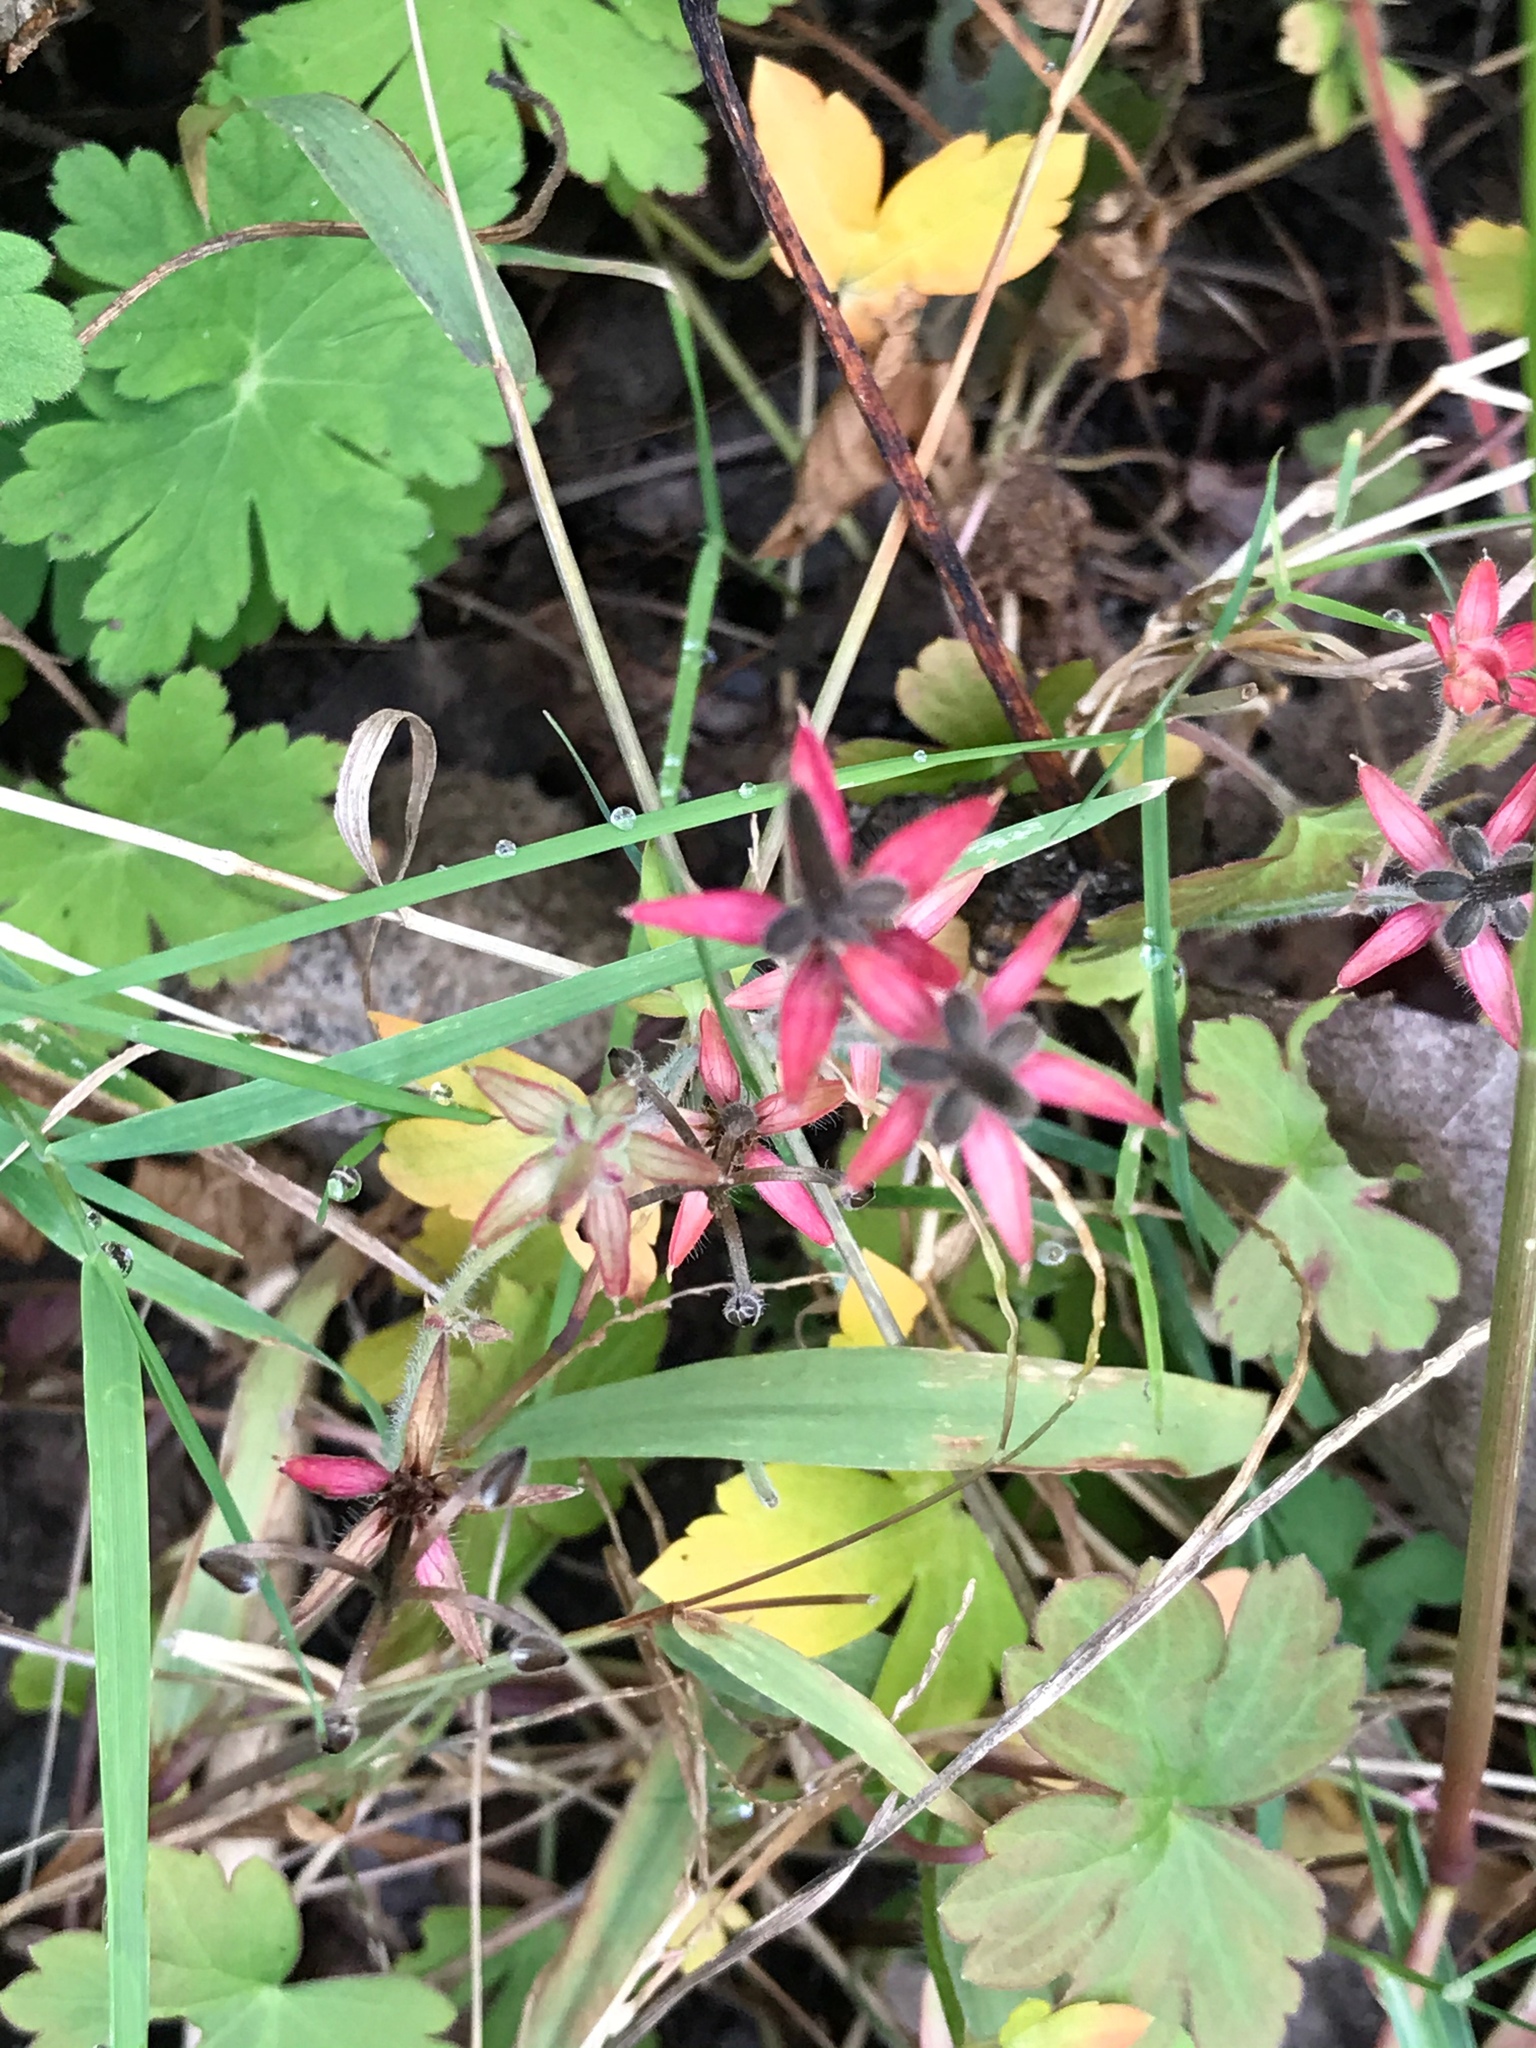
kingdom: Plantae
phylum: Tracheophyta
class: Magnoliopsida
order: Geraniales
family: Geraniaceae
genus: Geranium
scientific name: Geranium thunbergii
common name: Dewdrop crane's-bill
